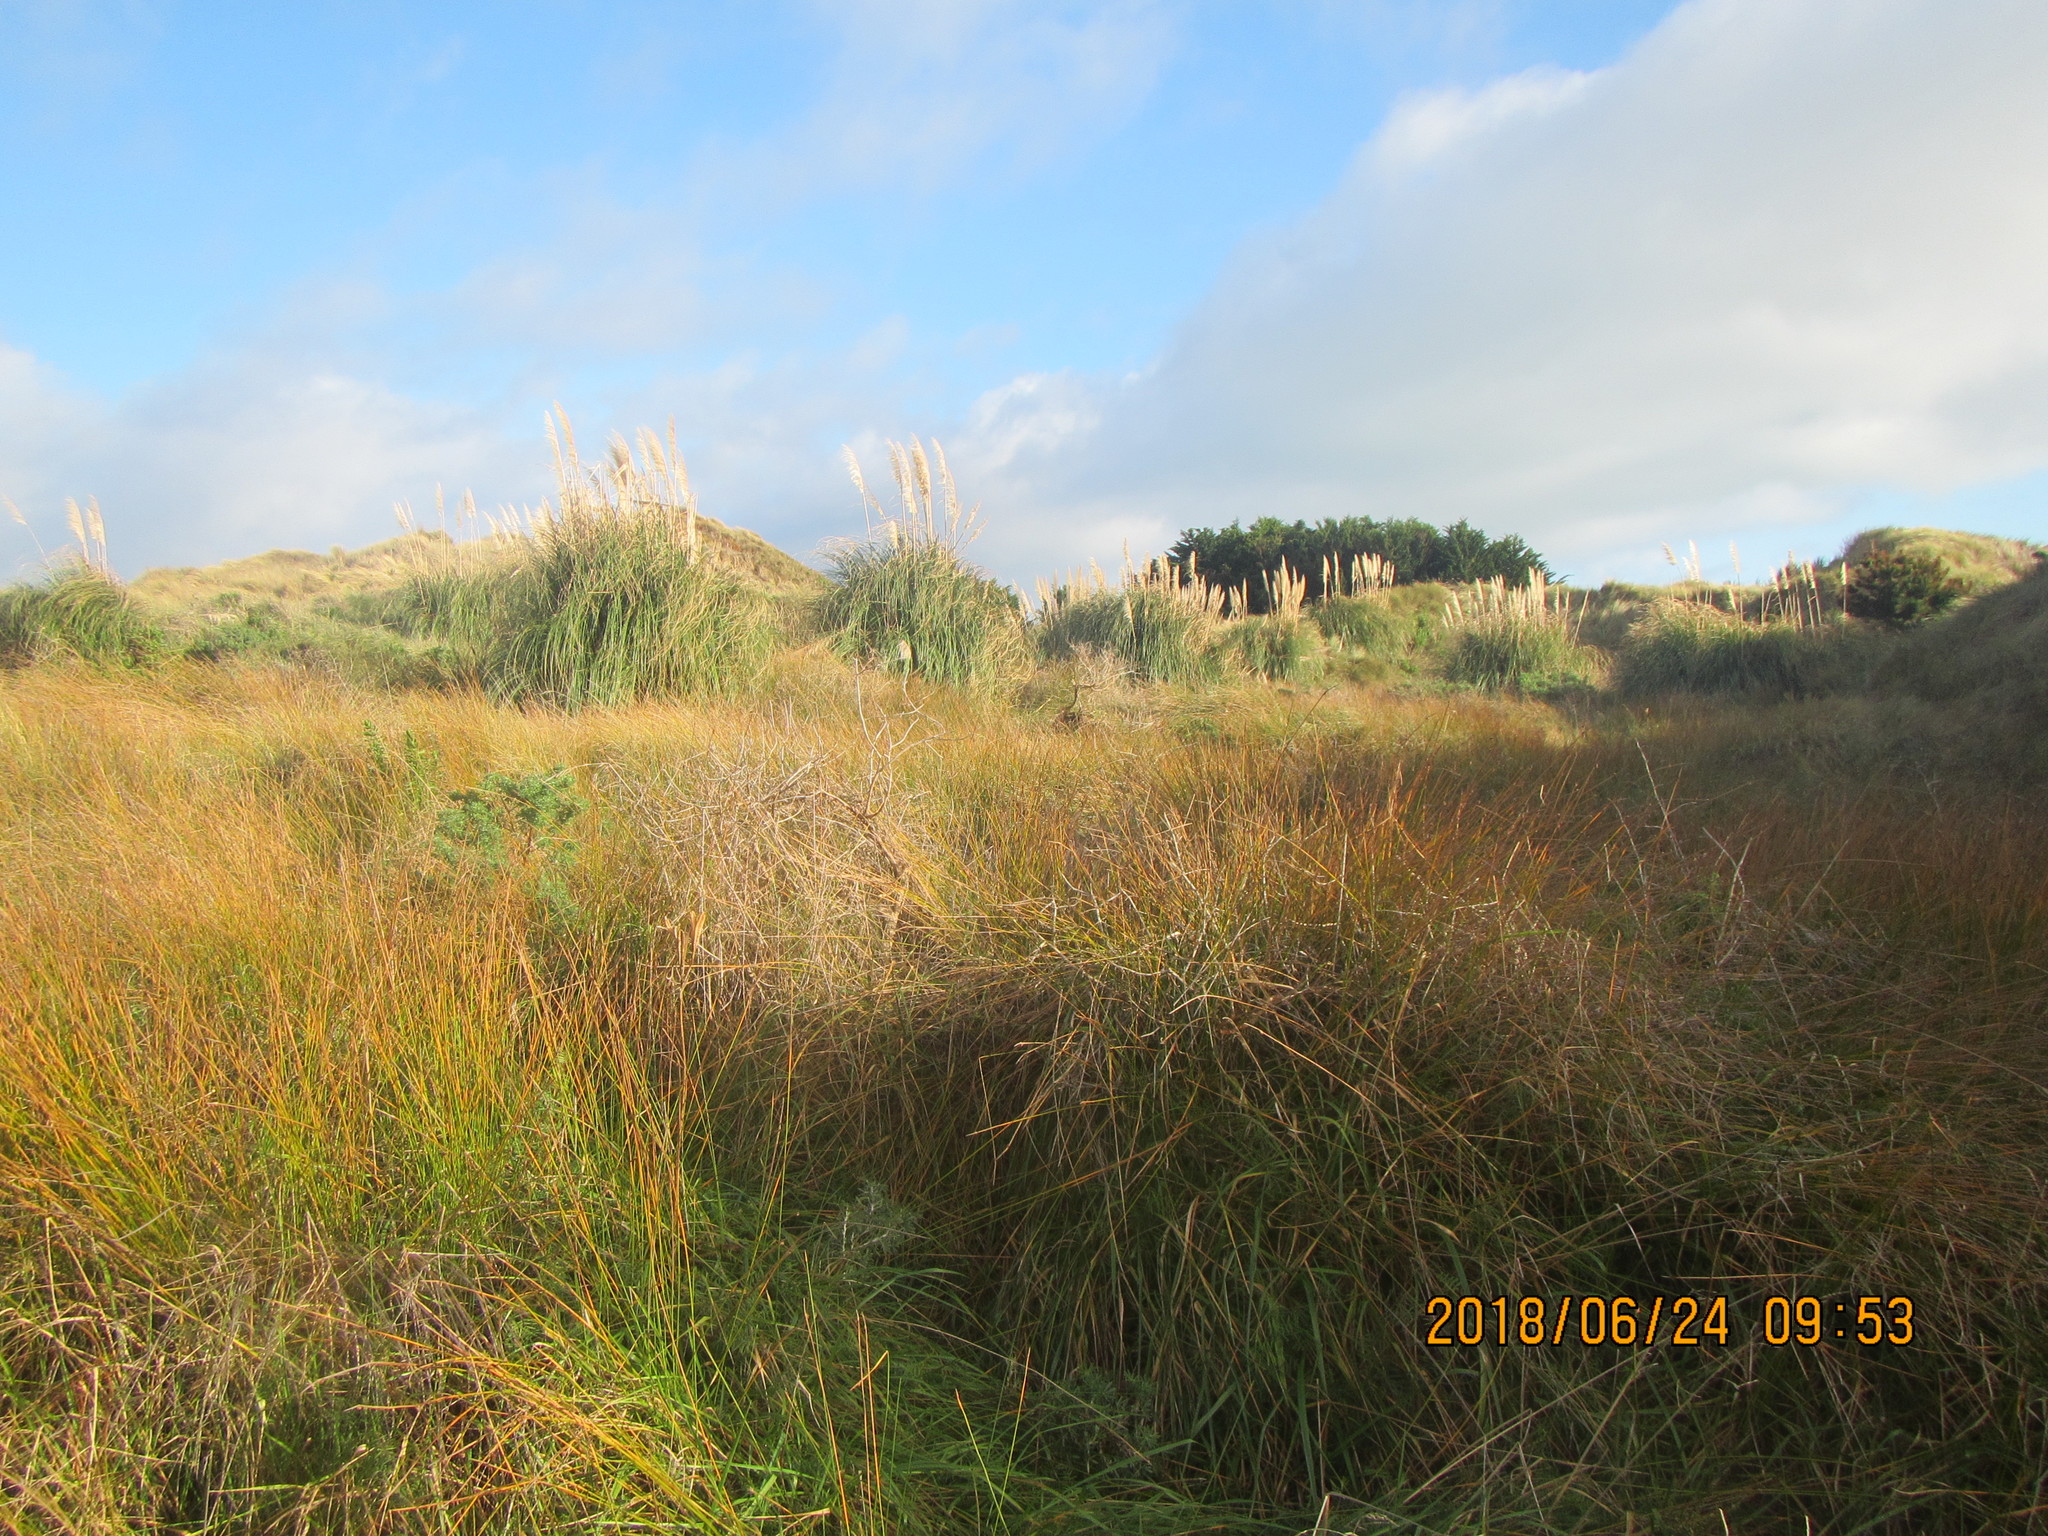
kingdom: Plantae
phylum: Tracheophyta
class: Liliopsida
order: Poales
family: Poaceae
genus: Cortaderia
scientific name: Cortaderia selloana
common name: Uruguayan pampas grass
